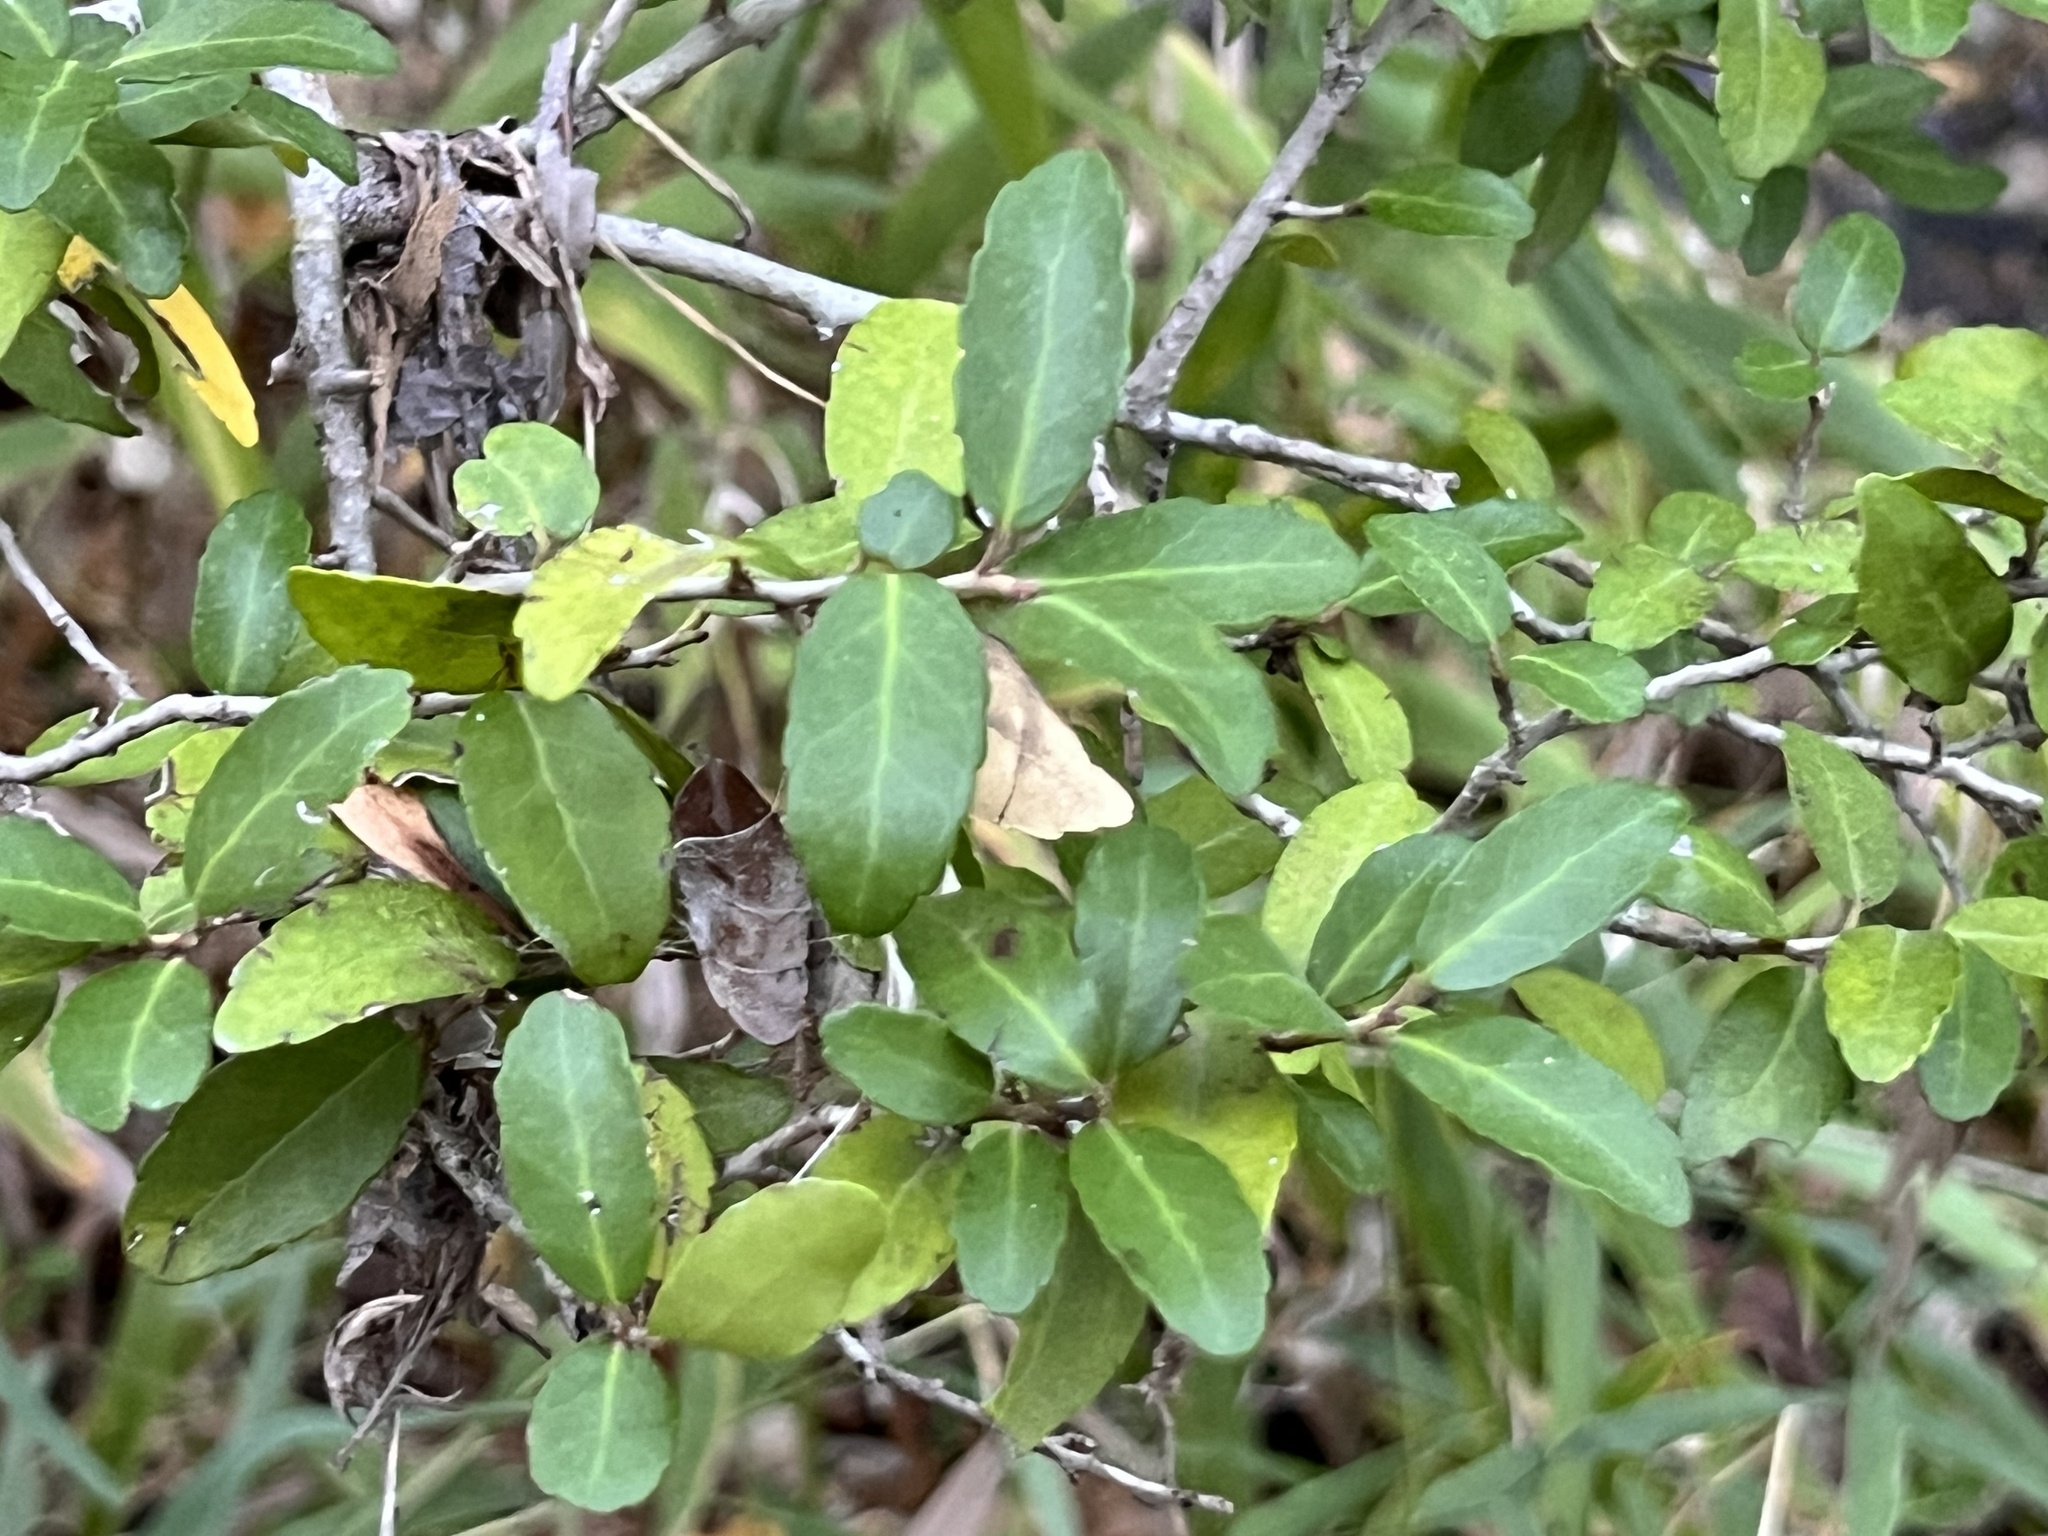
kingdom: Plantae
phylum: Tracheophyta
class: Magnoliopsida
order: Aquifoliales
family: Aquifoliaceae
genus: Ilex
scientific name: Ilex vomitoria
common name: Yaupon holly
